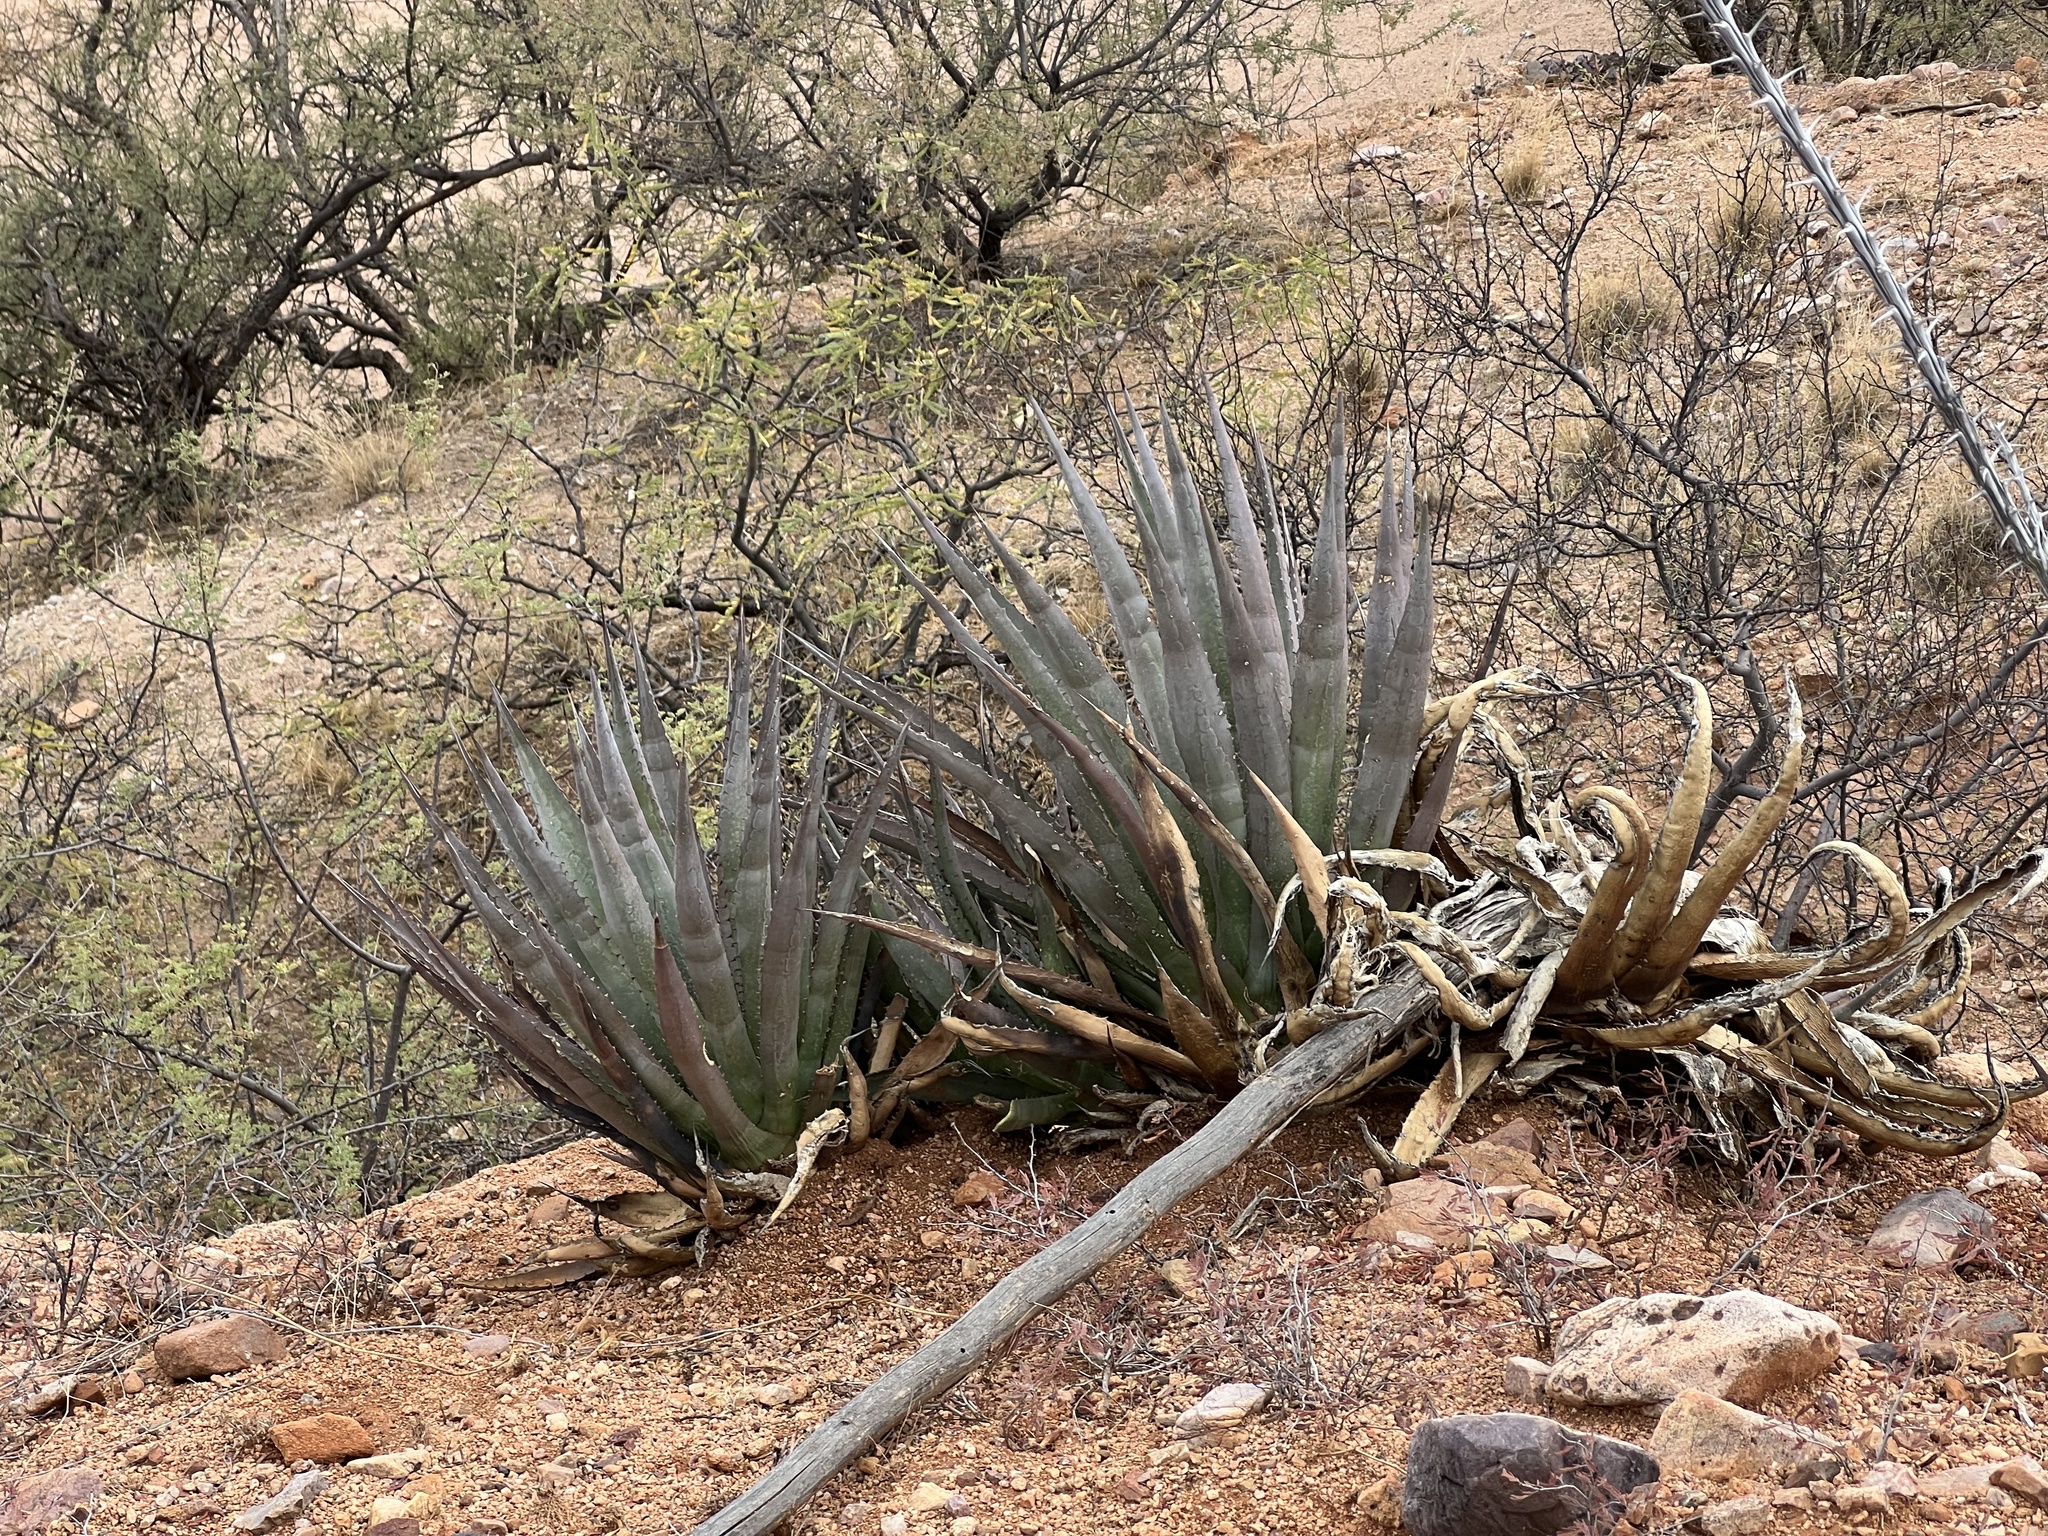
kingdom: Plantae
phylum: Tracheophyta
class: Liliopsida
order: Asparagales
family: Asparagaceae
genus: Agave
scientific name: Agave palmeri
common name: Palmer agave
